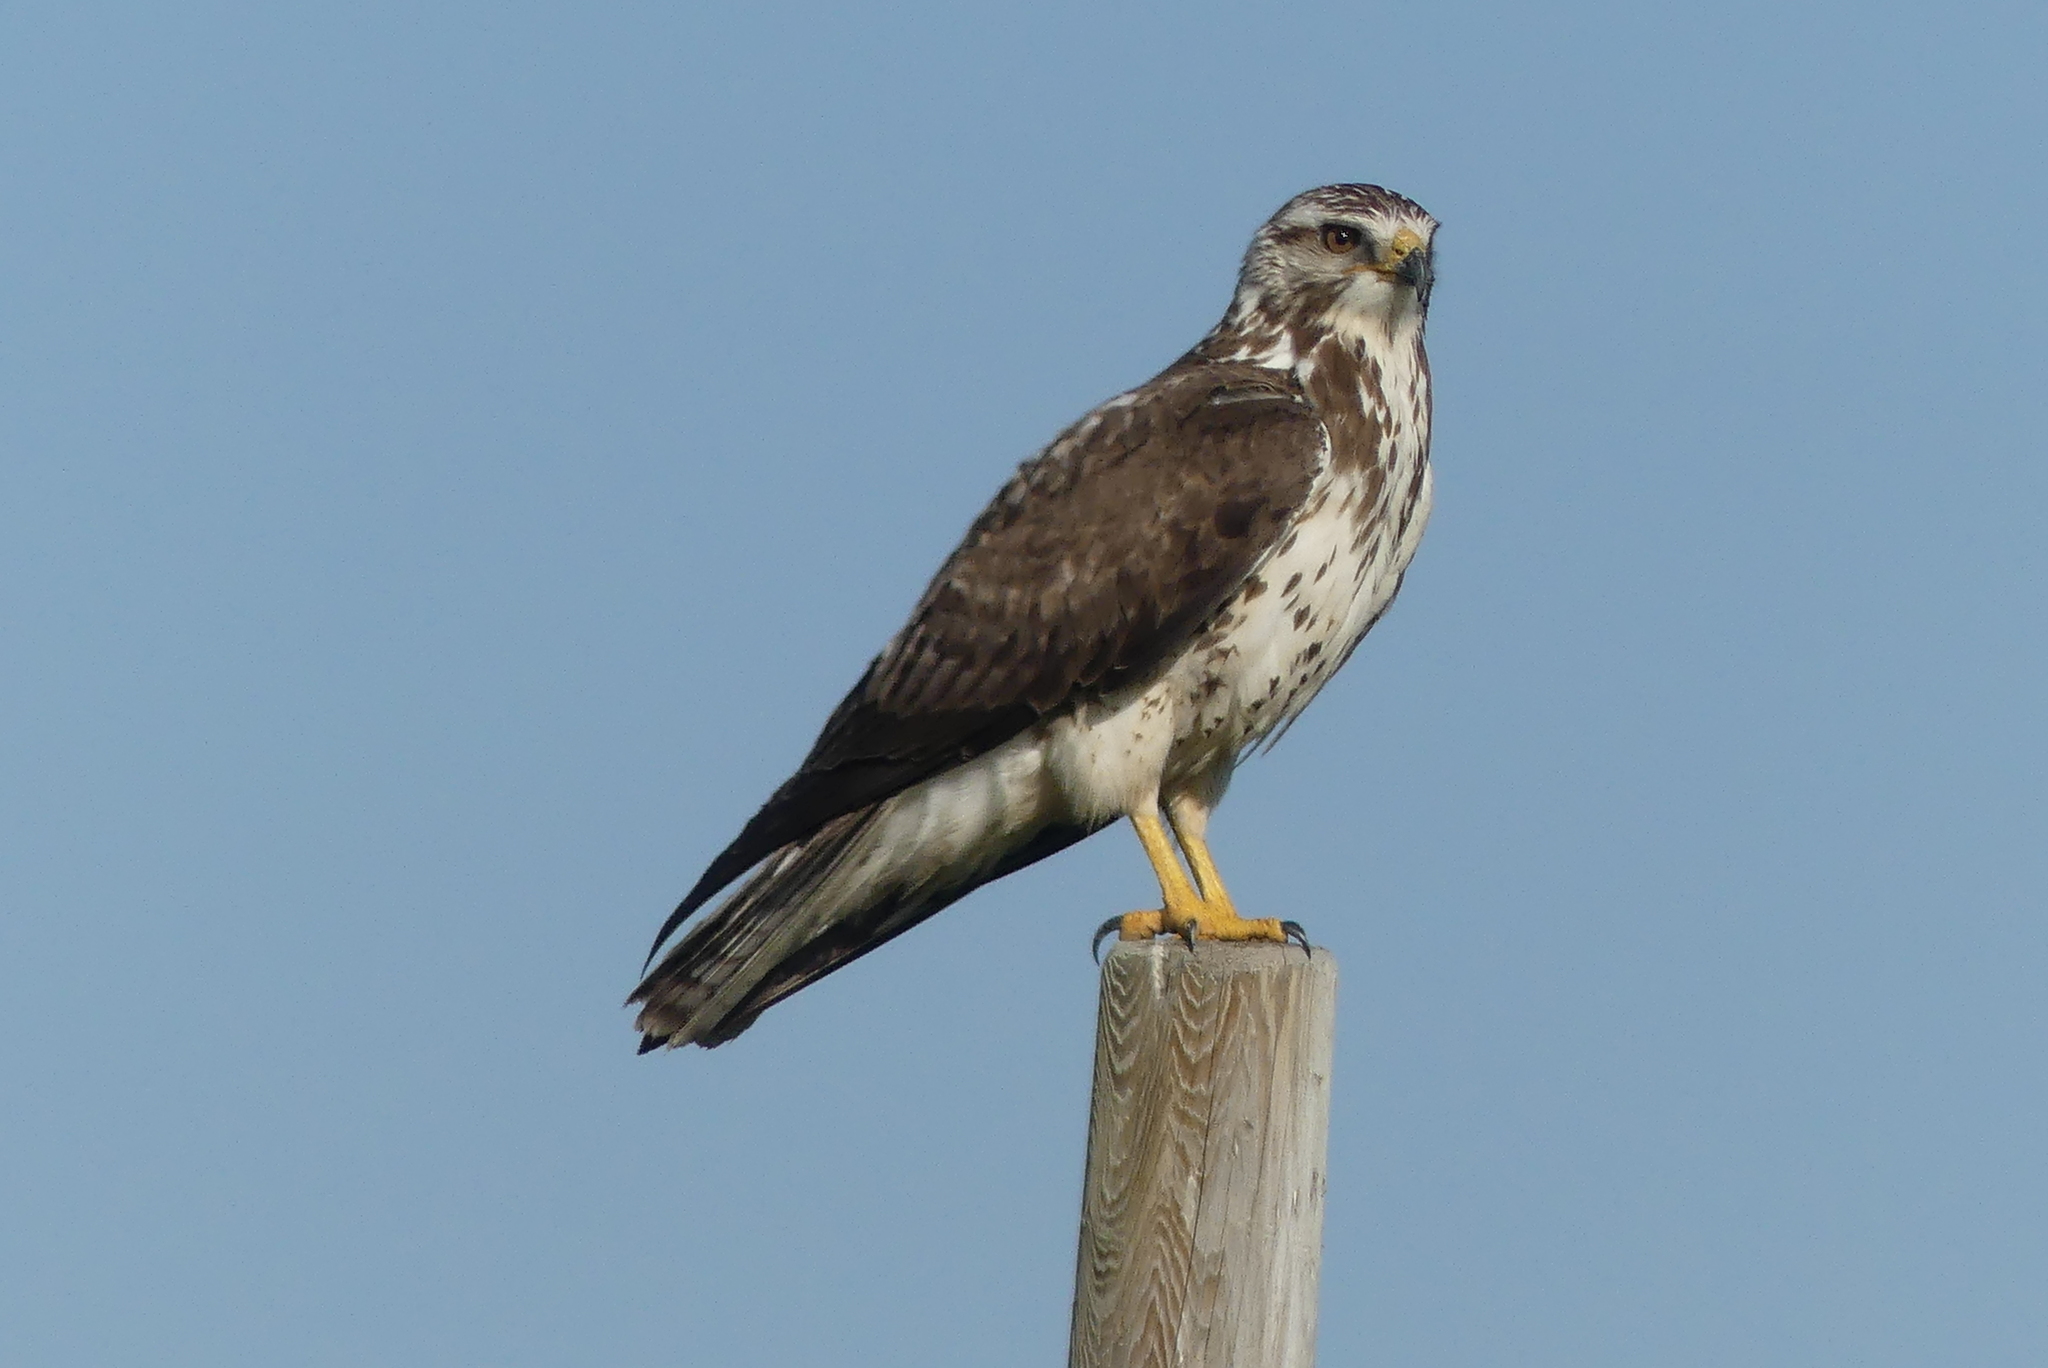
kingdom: Animalia
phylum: Chordata
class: Aves
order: Accipitriformes
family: Accipitridae
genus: Buteo
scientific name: Buteo swainsoni
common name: Swainson's hawk
